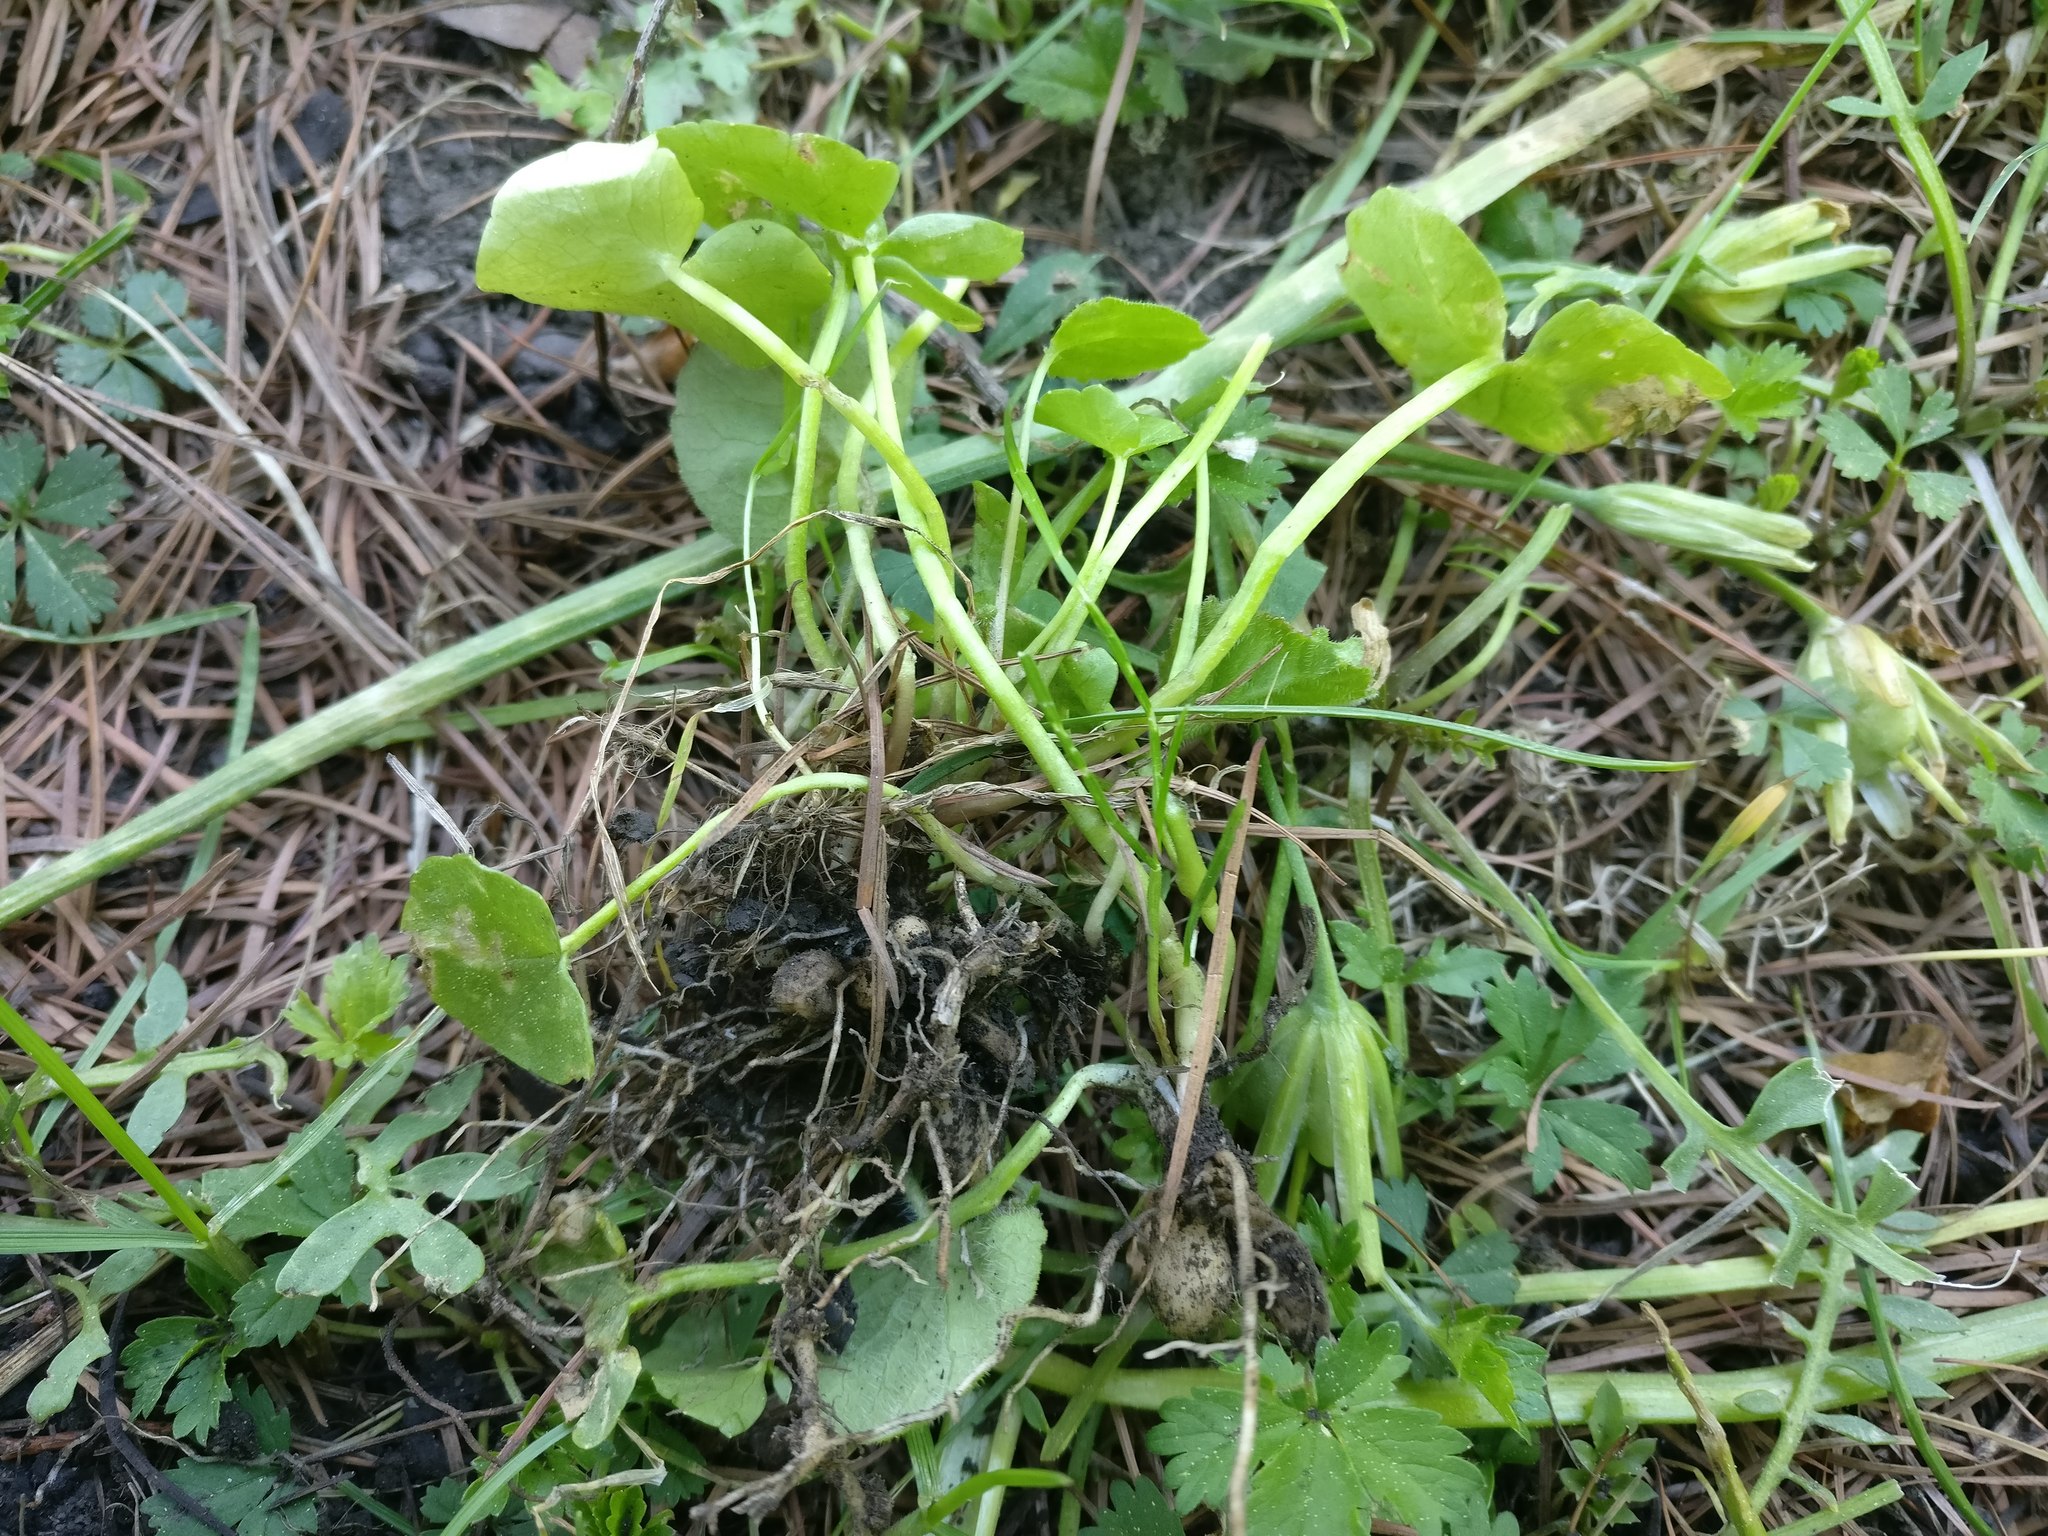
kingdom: Plantae
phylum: Tracheophyta
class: Magnoliopsida
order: Ranunculales
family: Ranunculaceae
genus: Ficaria
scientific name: Ficaria verna
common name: Lesser celandine
